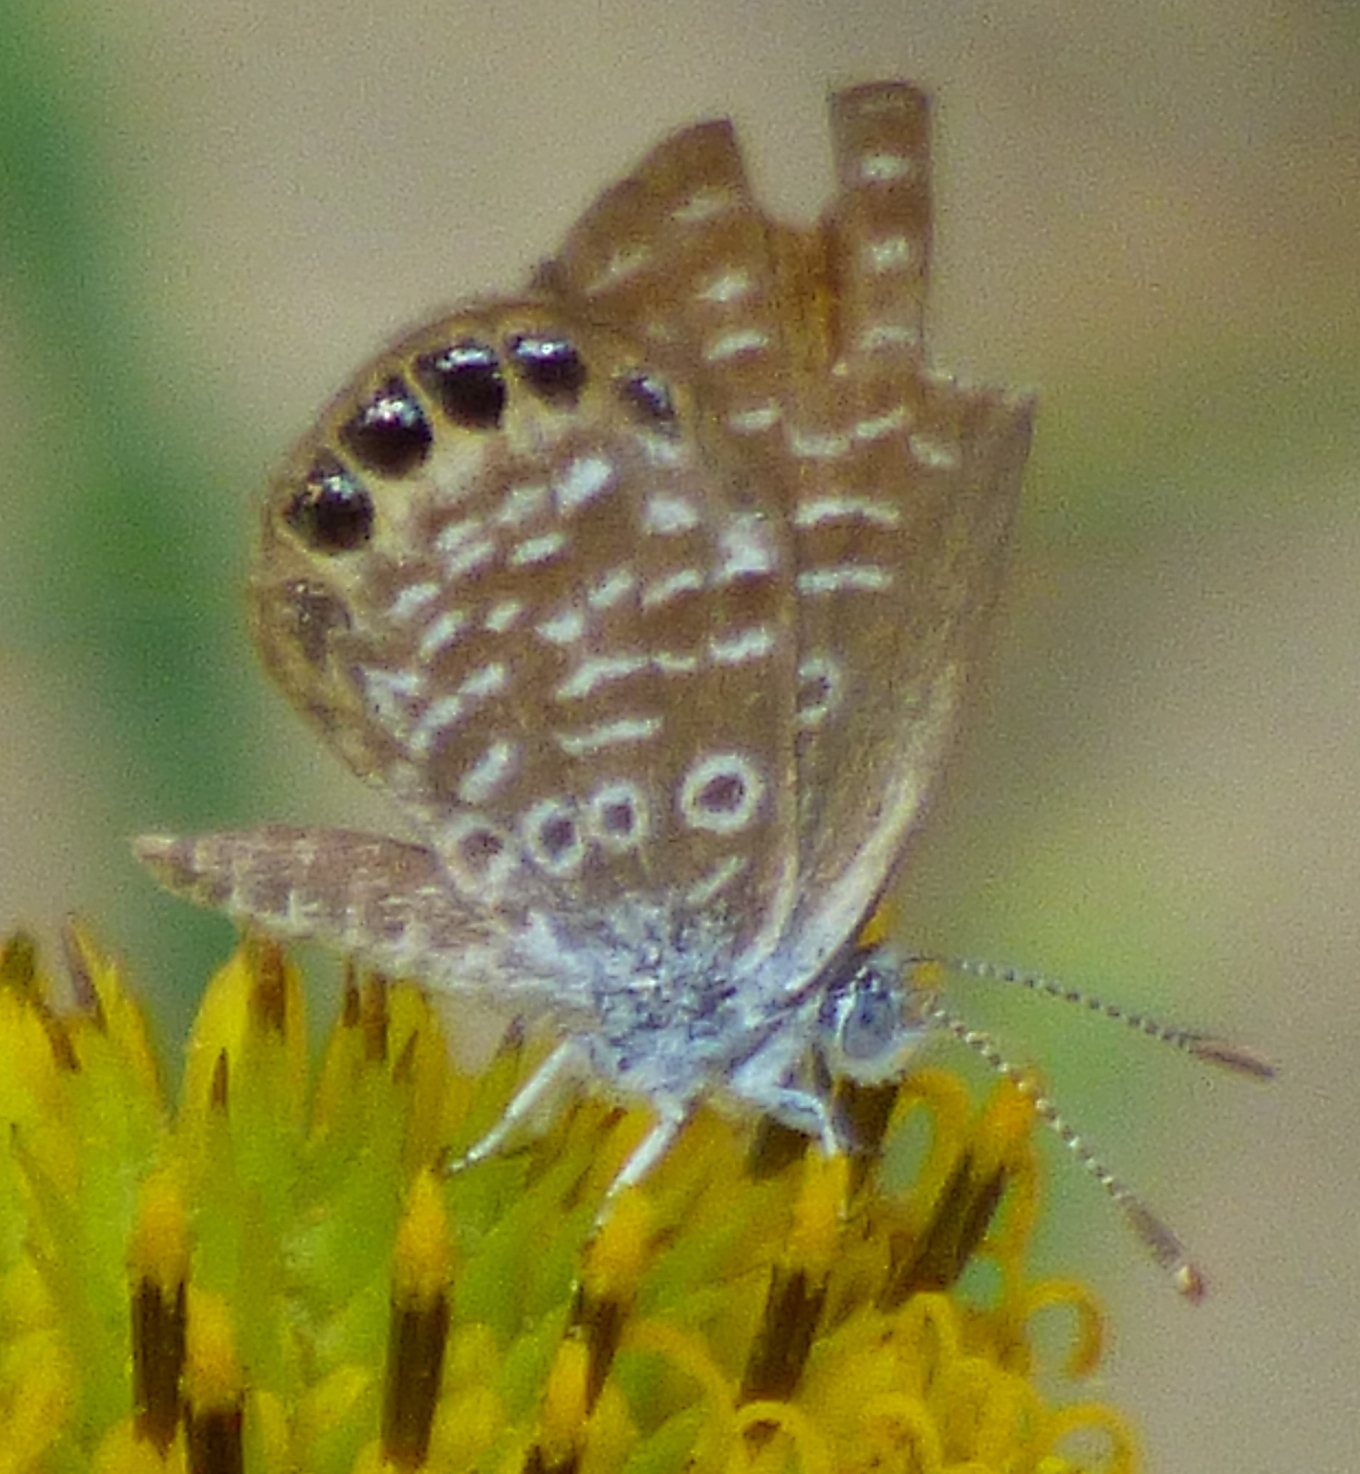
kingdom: Animalia
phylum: Arthropoda
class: Insecta
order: Lepidoptera
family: Lycaenidae
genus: Brephidium
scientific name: Brephidium isophthalma
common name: Eastern pygmy-blue
